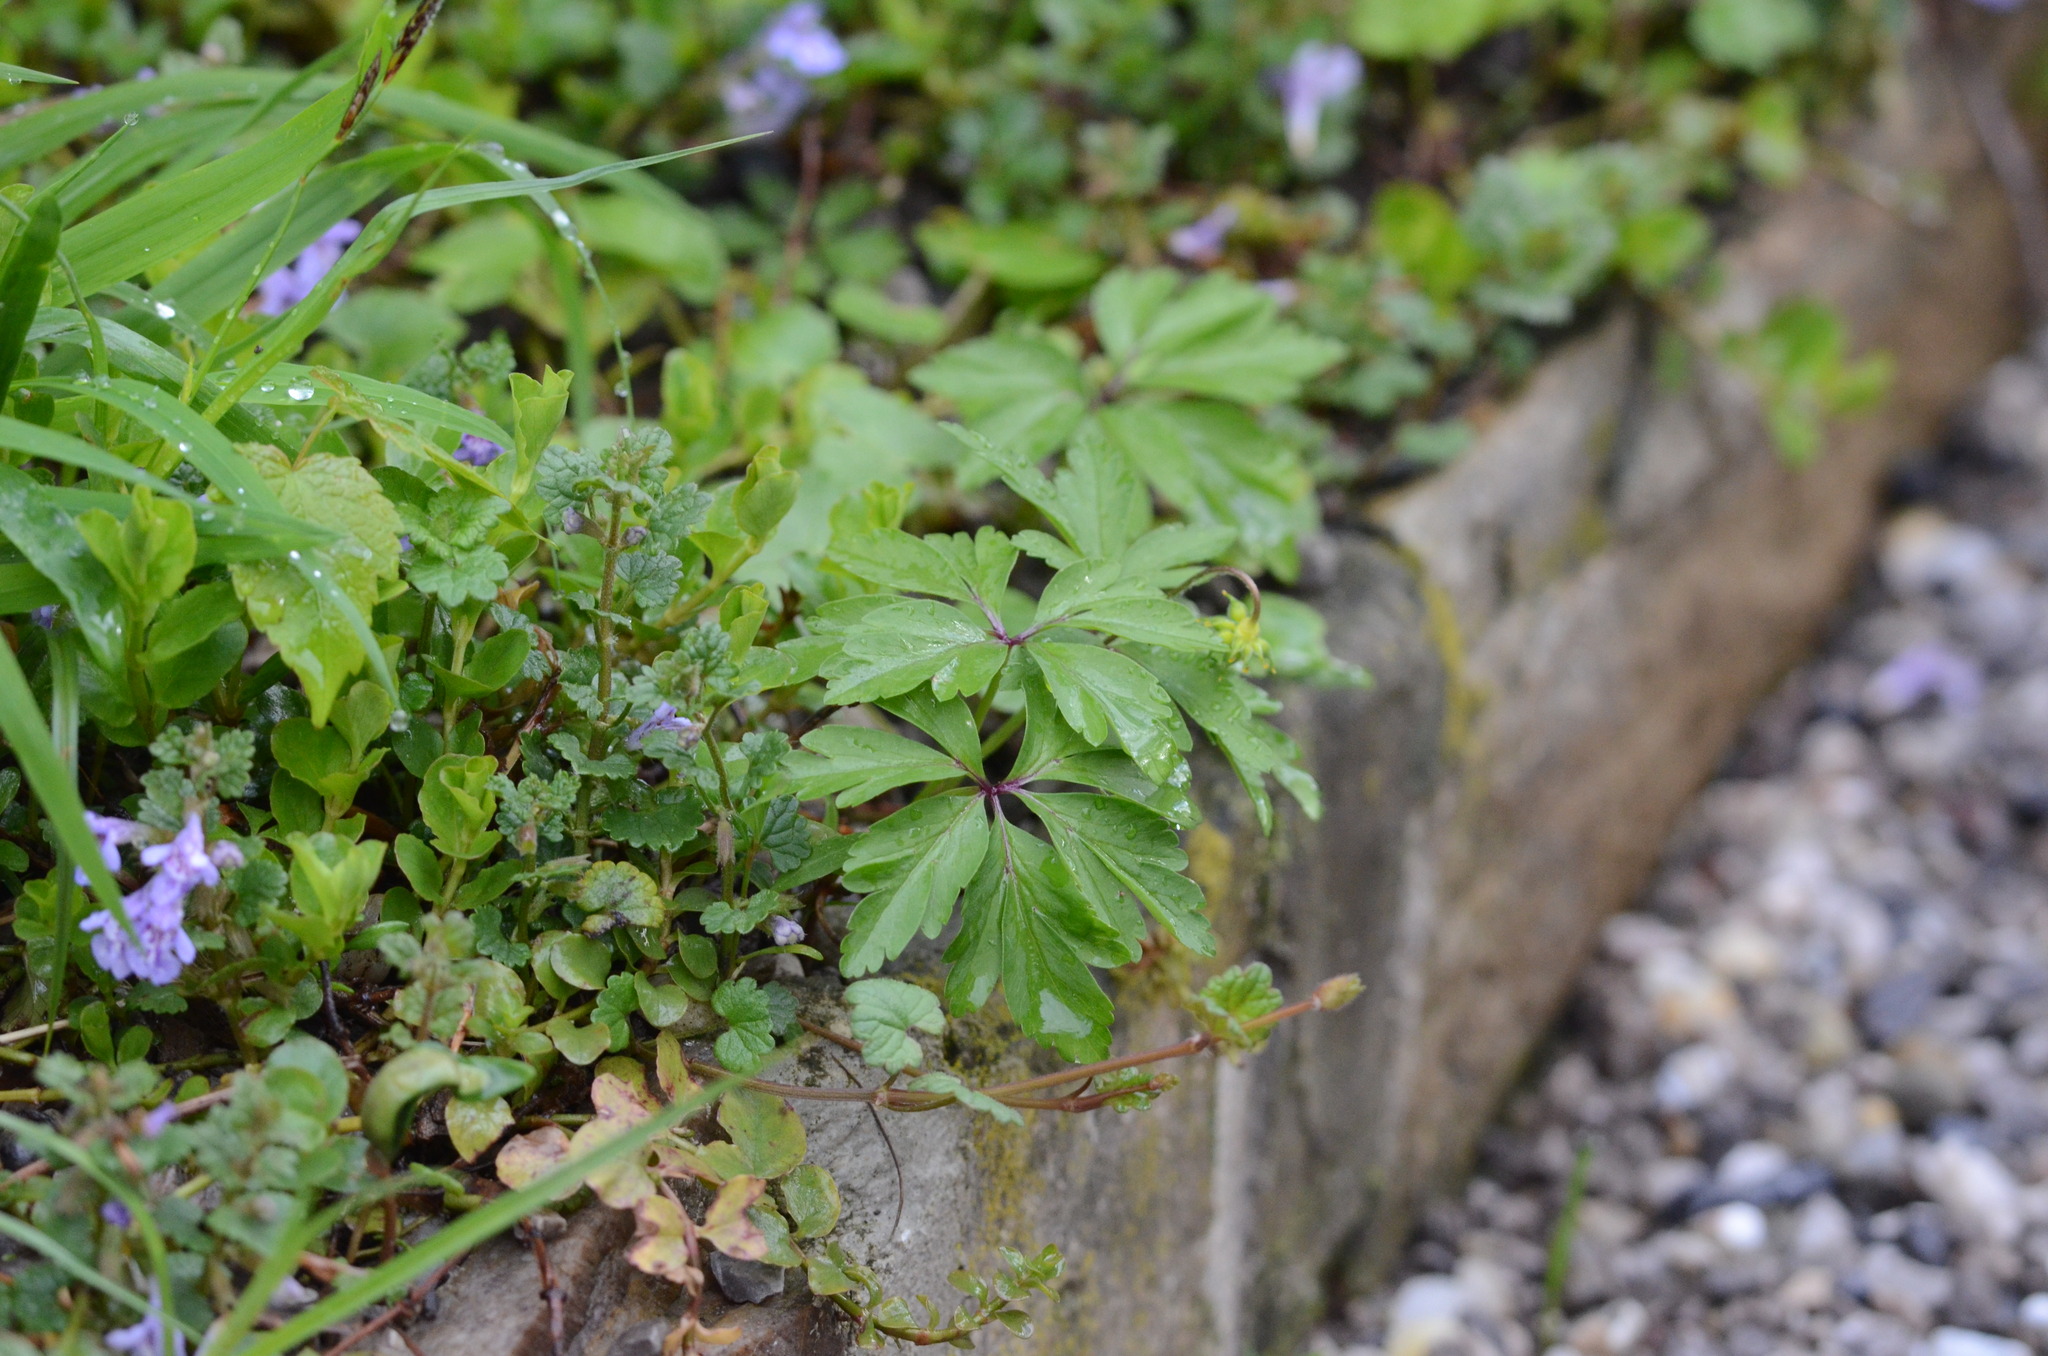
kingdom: Plantae
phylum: Tracheophyta
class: Magnoliopsida
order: Ranunculales
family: Ranunculaceae
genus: Anemone
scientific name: Anemone ranunculoides
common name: Yellow anemone
